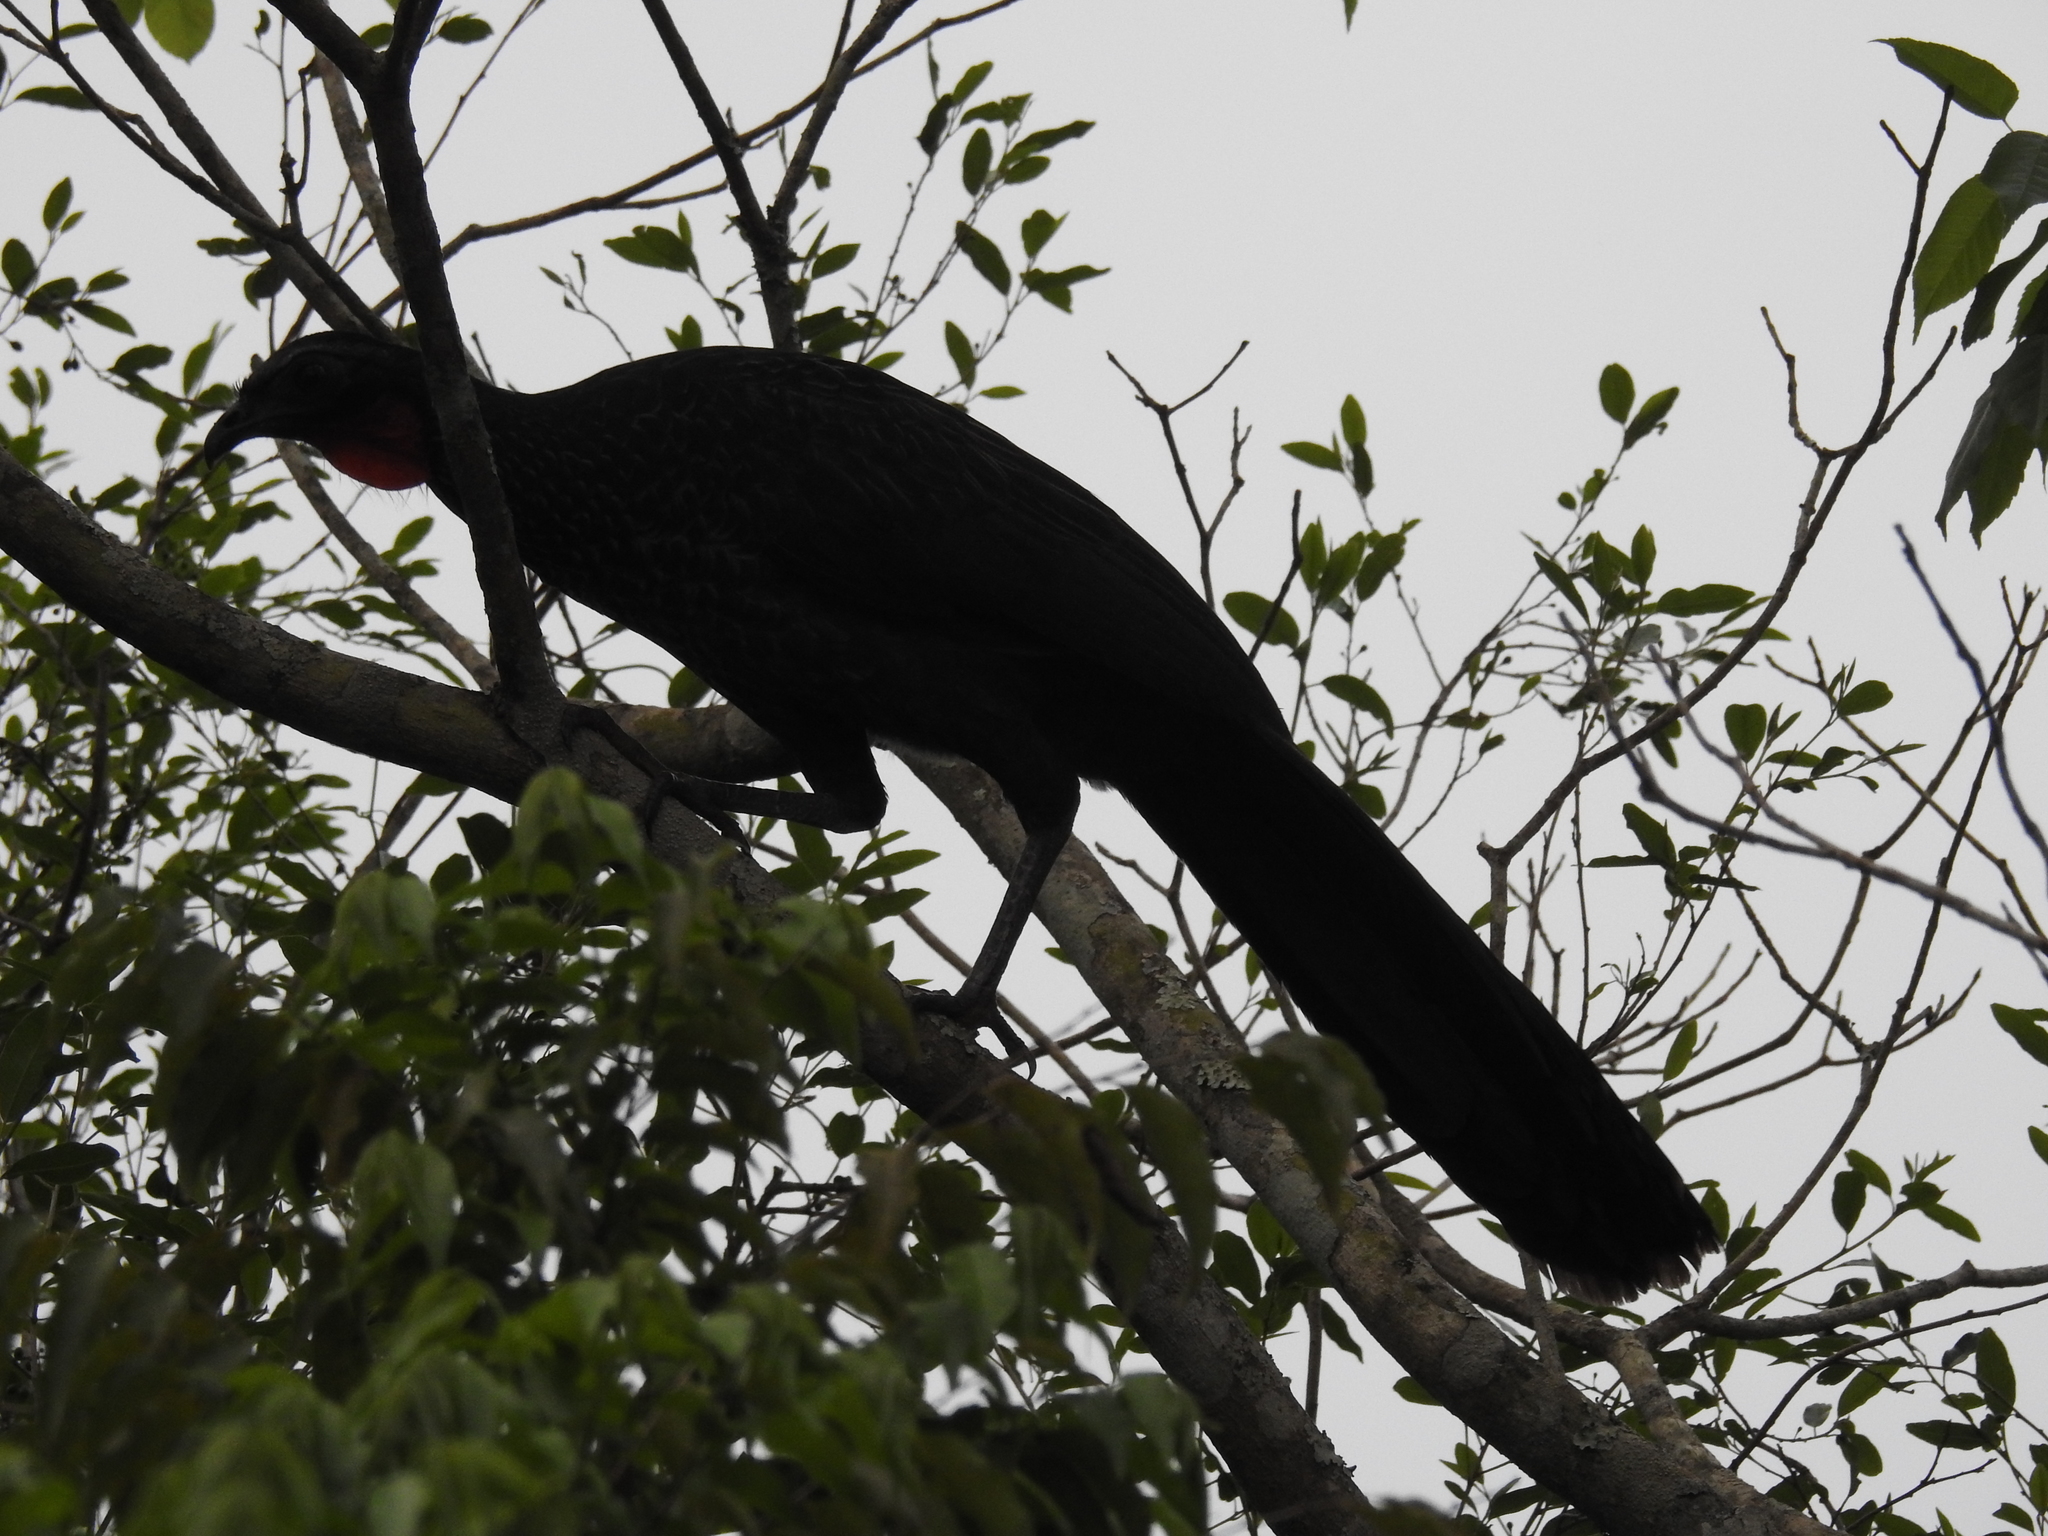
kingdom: Animalia
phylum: Chordata
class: Aves
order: Galliformes
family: Cracidae
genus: Penelope
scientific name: Penelope superciliaris
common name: Rusty-margined guan
